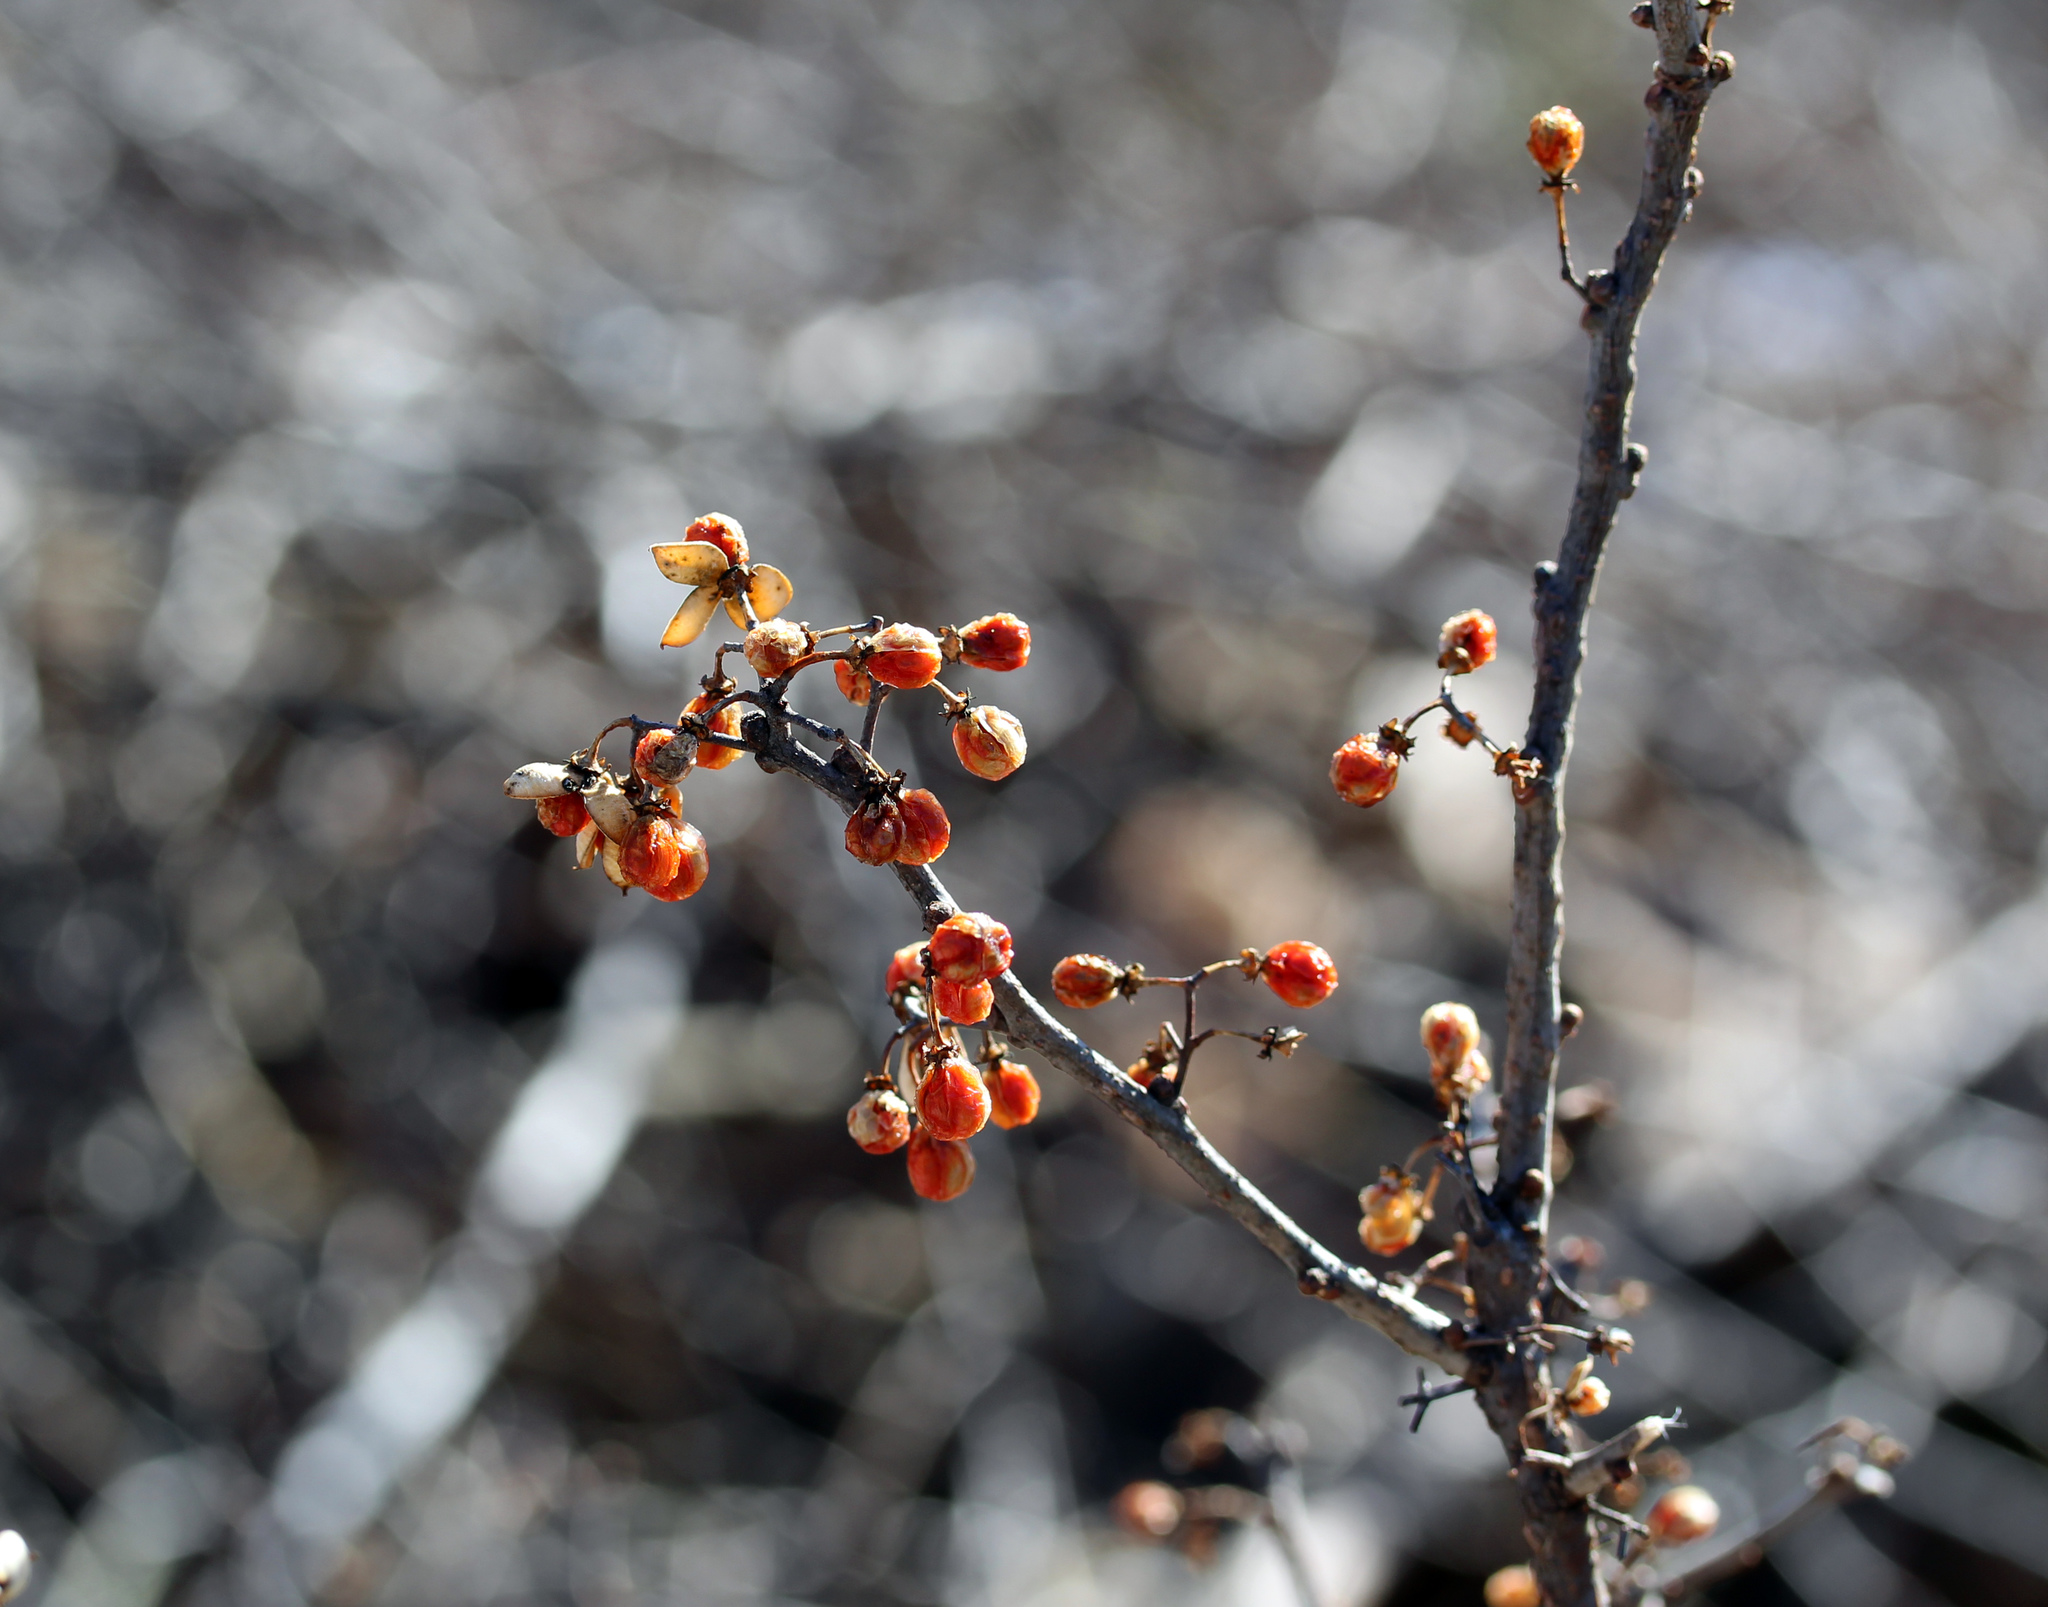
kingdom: Plantae
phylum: Tracheophyta
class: Magnoliopsida
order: Celastrales
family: Celastraceae
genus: Celastrus
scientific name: Celastrus orbiculatus
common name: Oriental bittersweet
